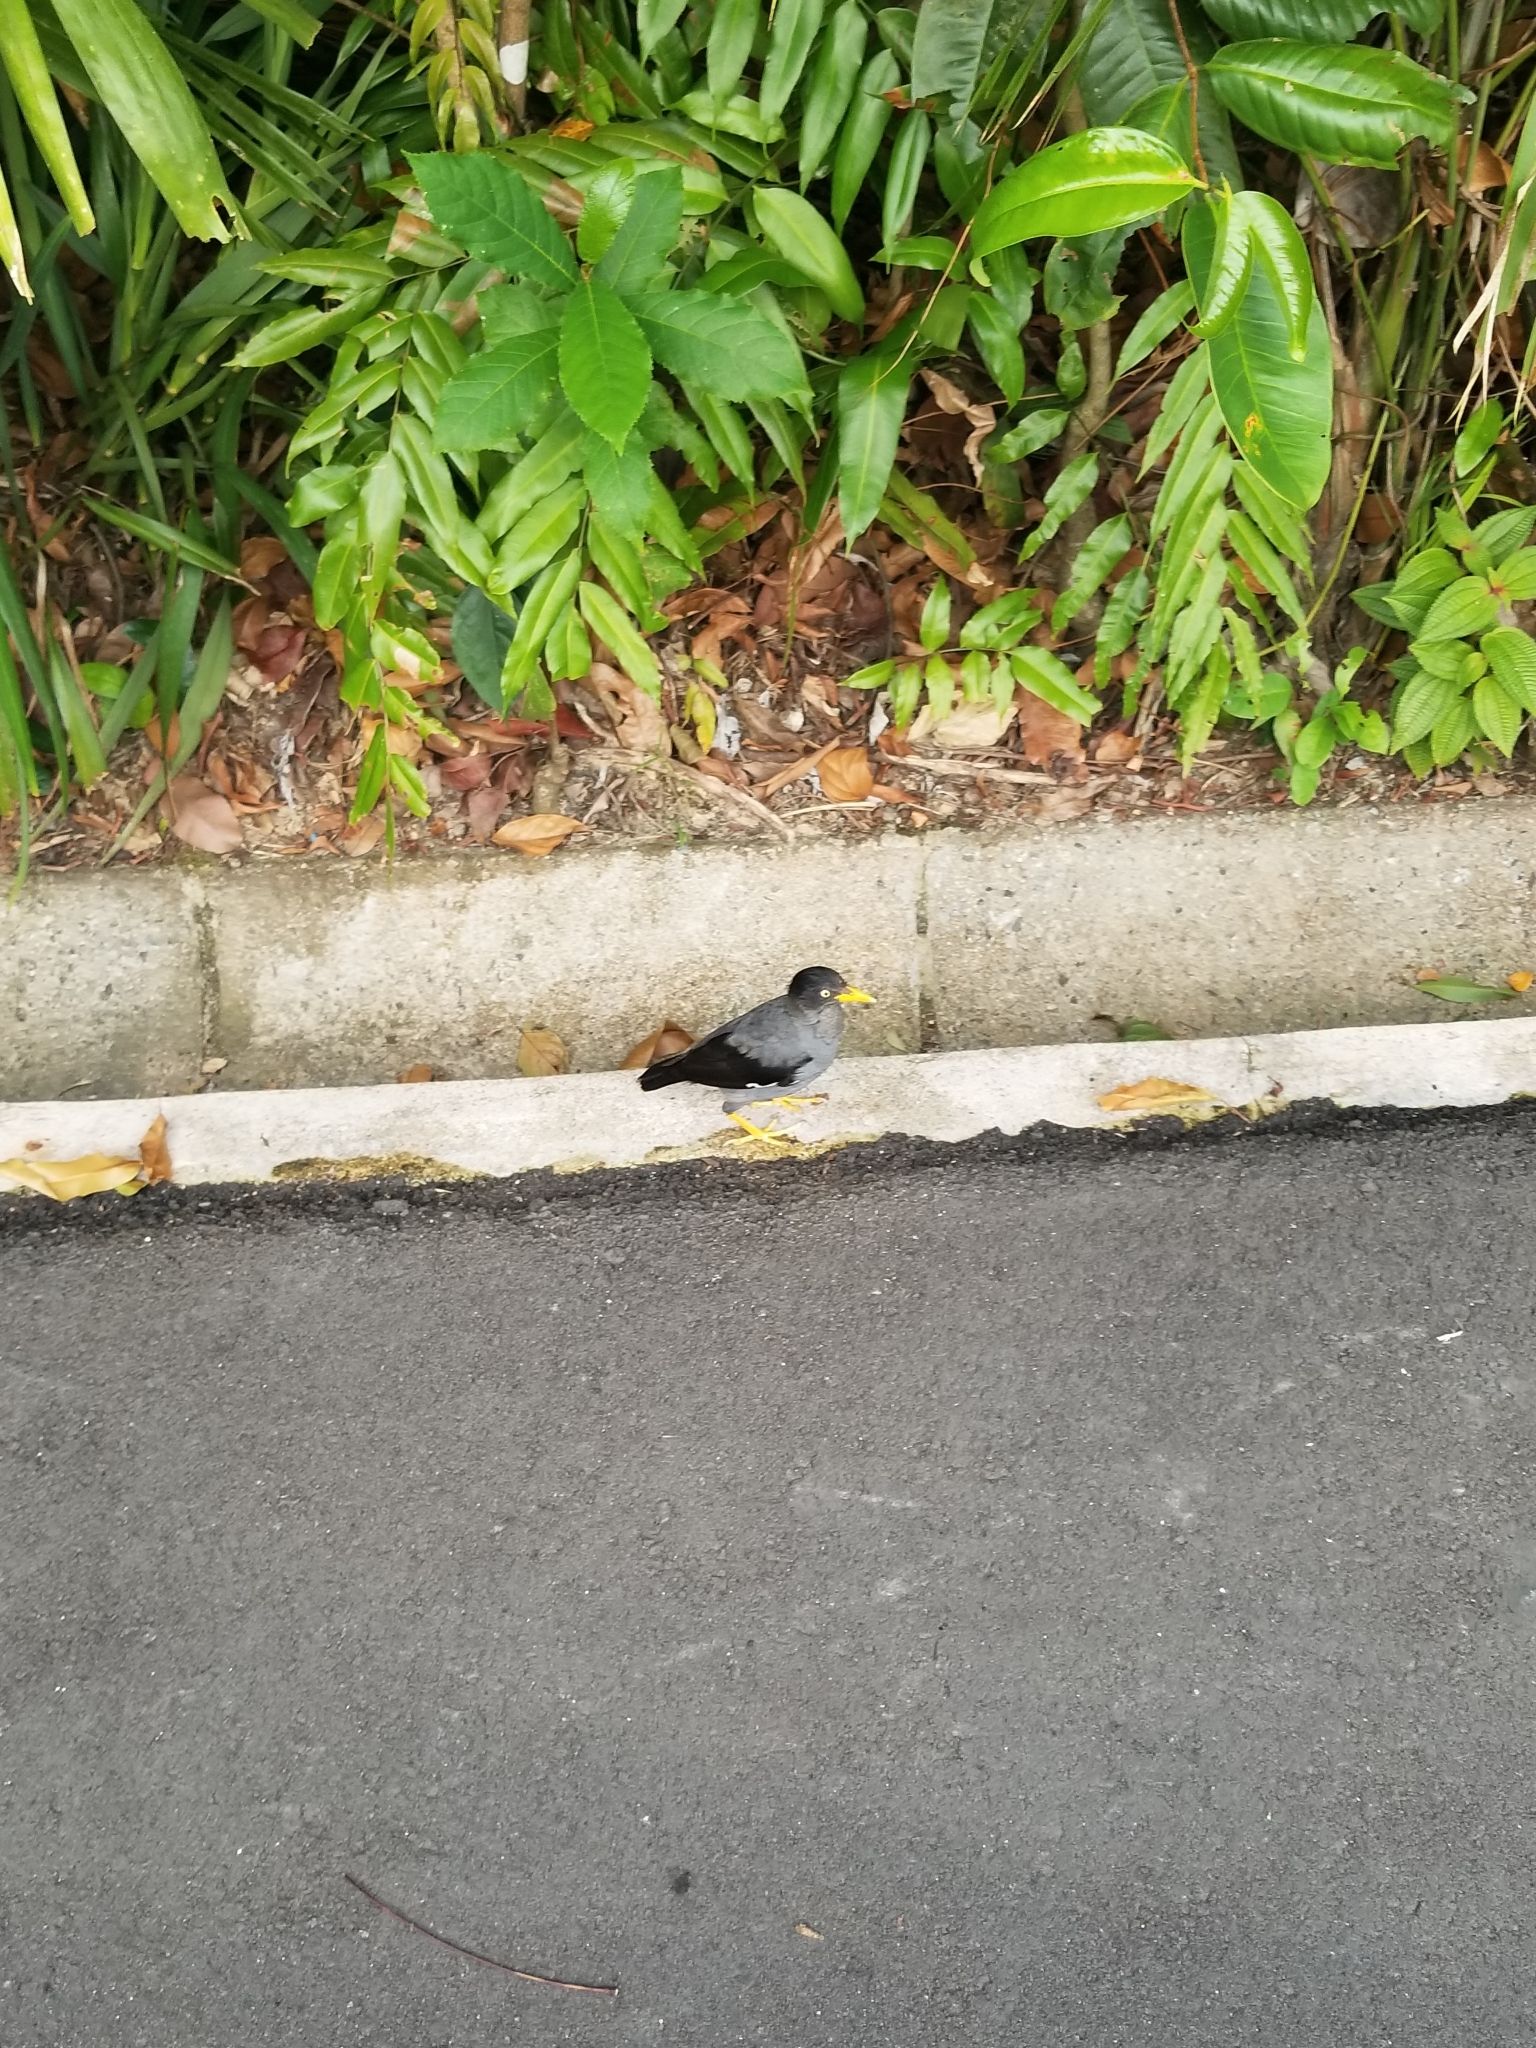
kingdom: Animalia
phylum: Chordata
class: Aves
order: Passeriformes
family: Sturnidae
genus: Acridotheres
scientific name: Acridotheres javanicus
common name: Javan myna
